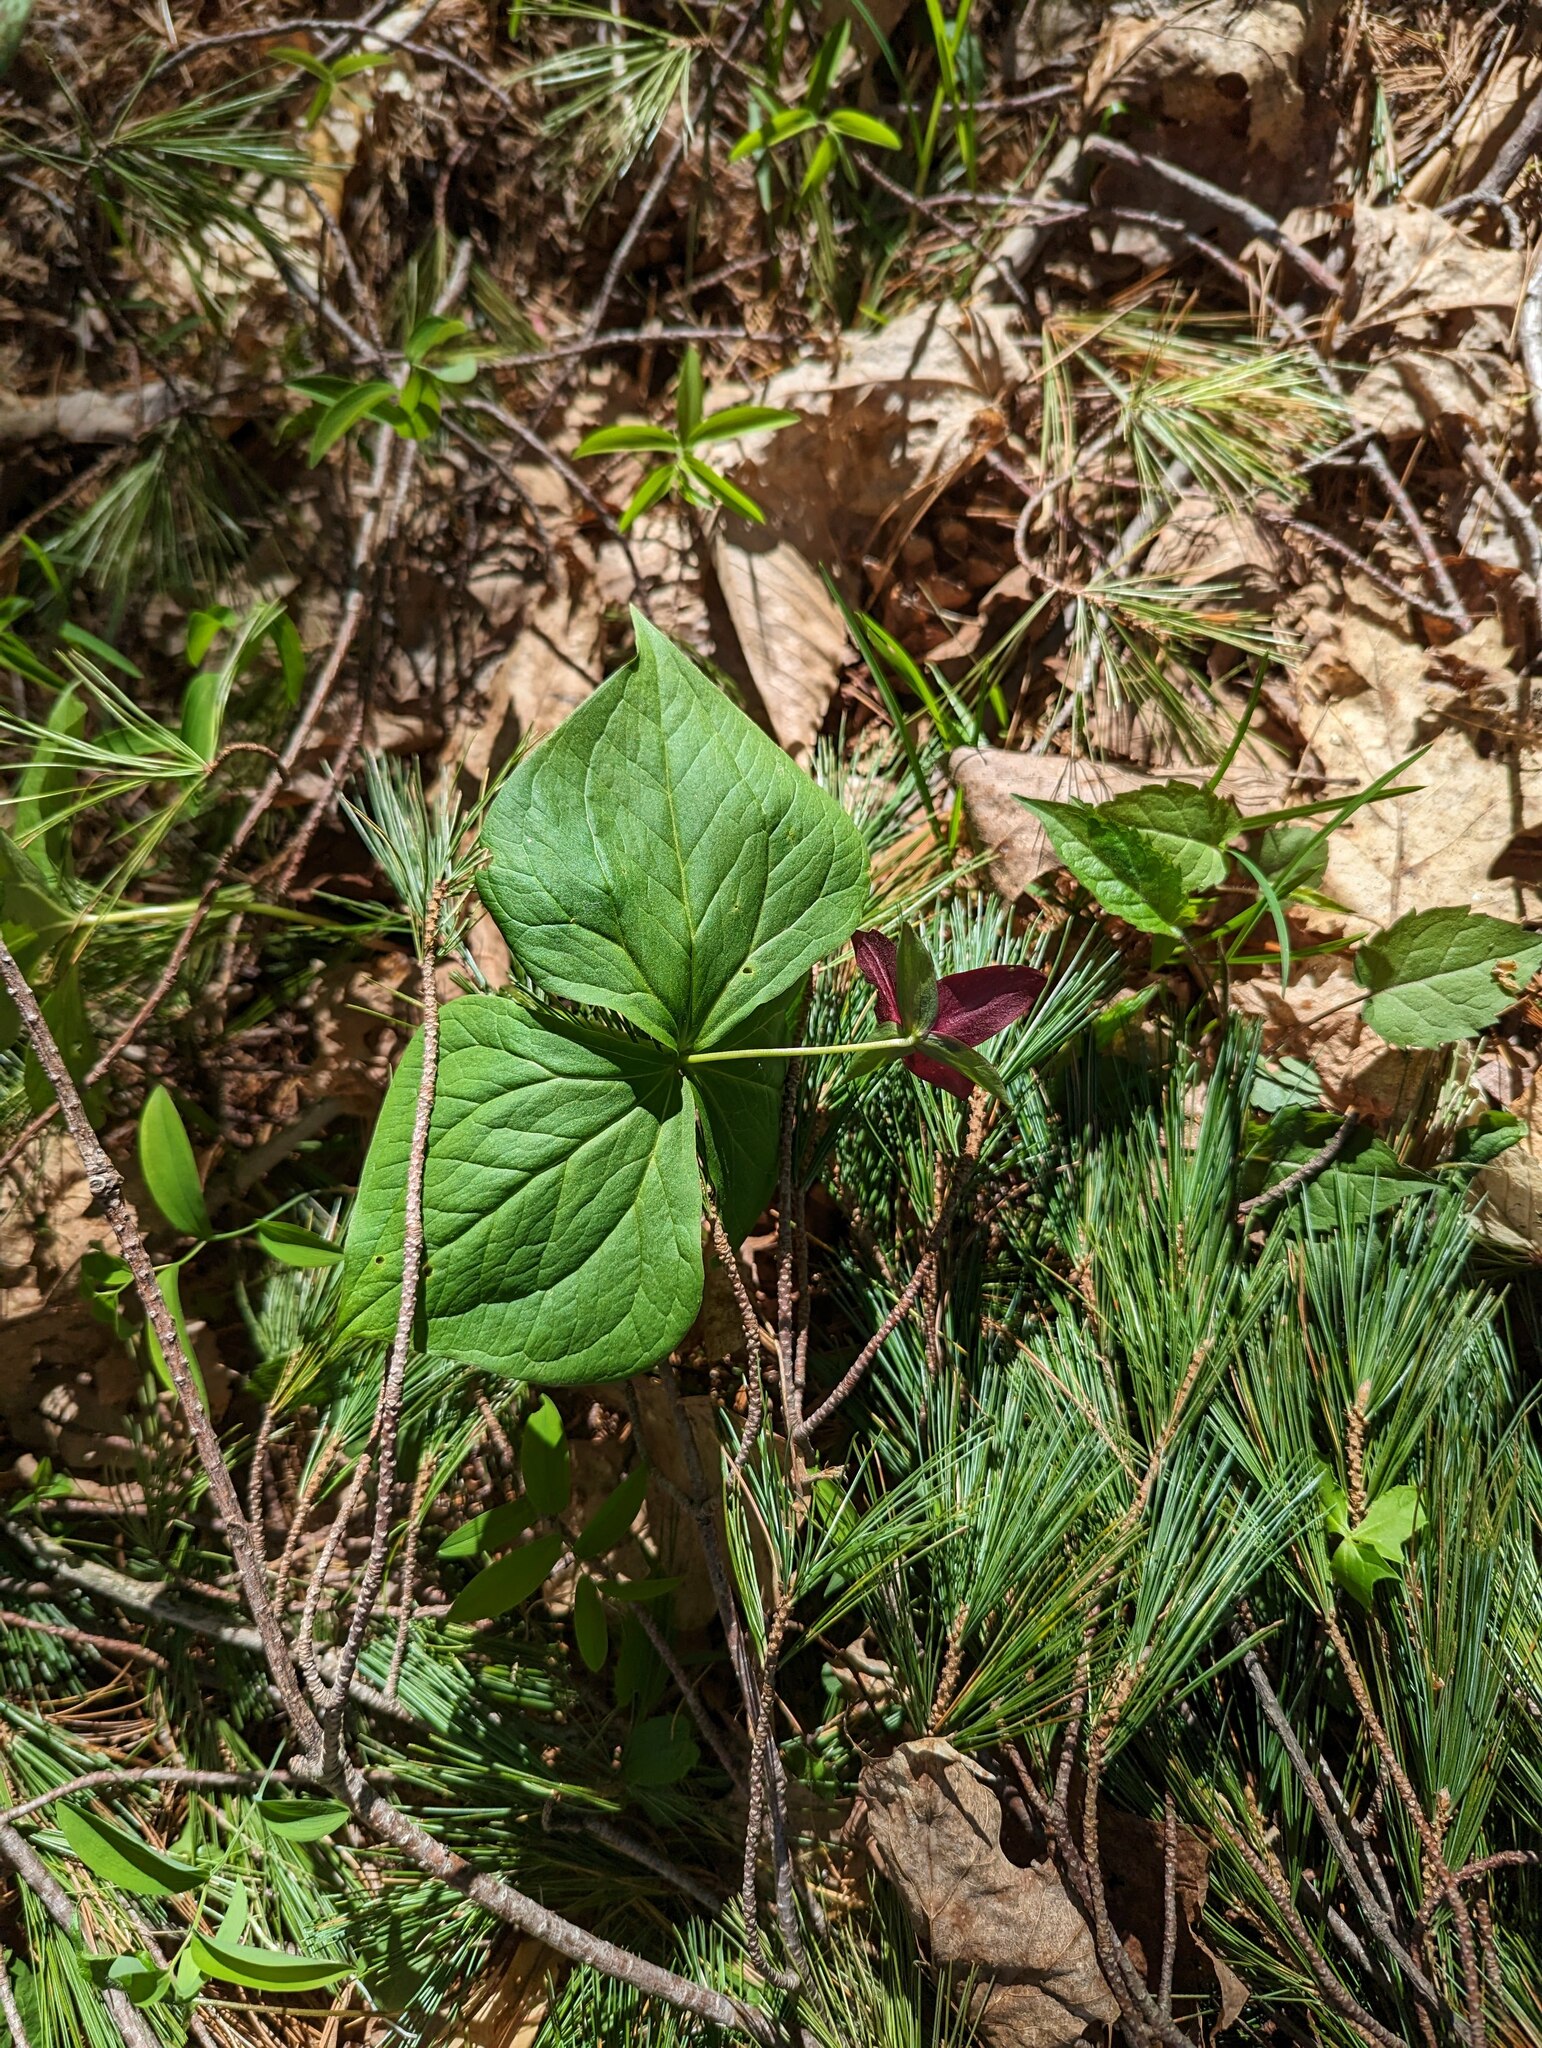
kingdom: Plantae
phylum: Tracheophyta
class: Liliopsida
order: Liliales
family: Melanthiaceae
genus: Trillium
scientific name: Trillium erectum
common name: Purple trillium
